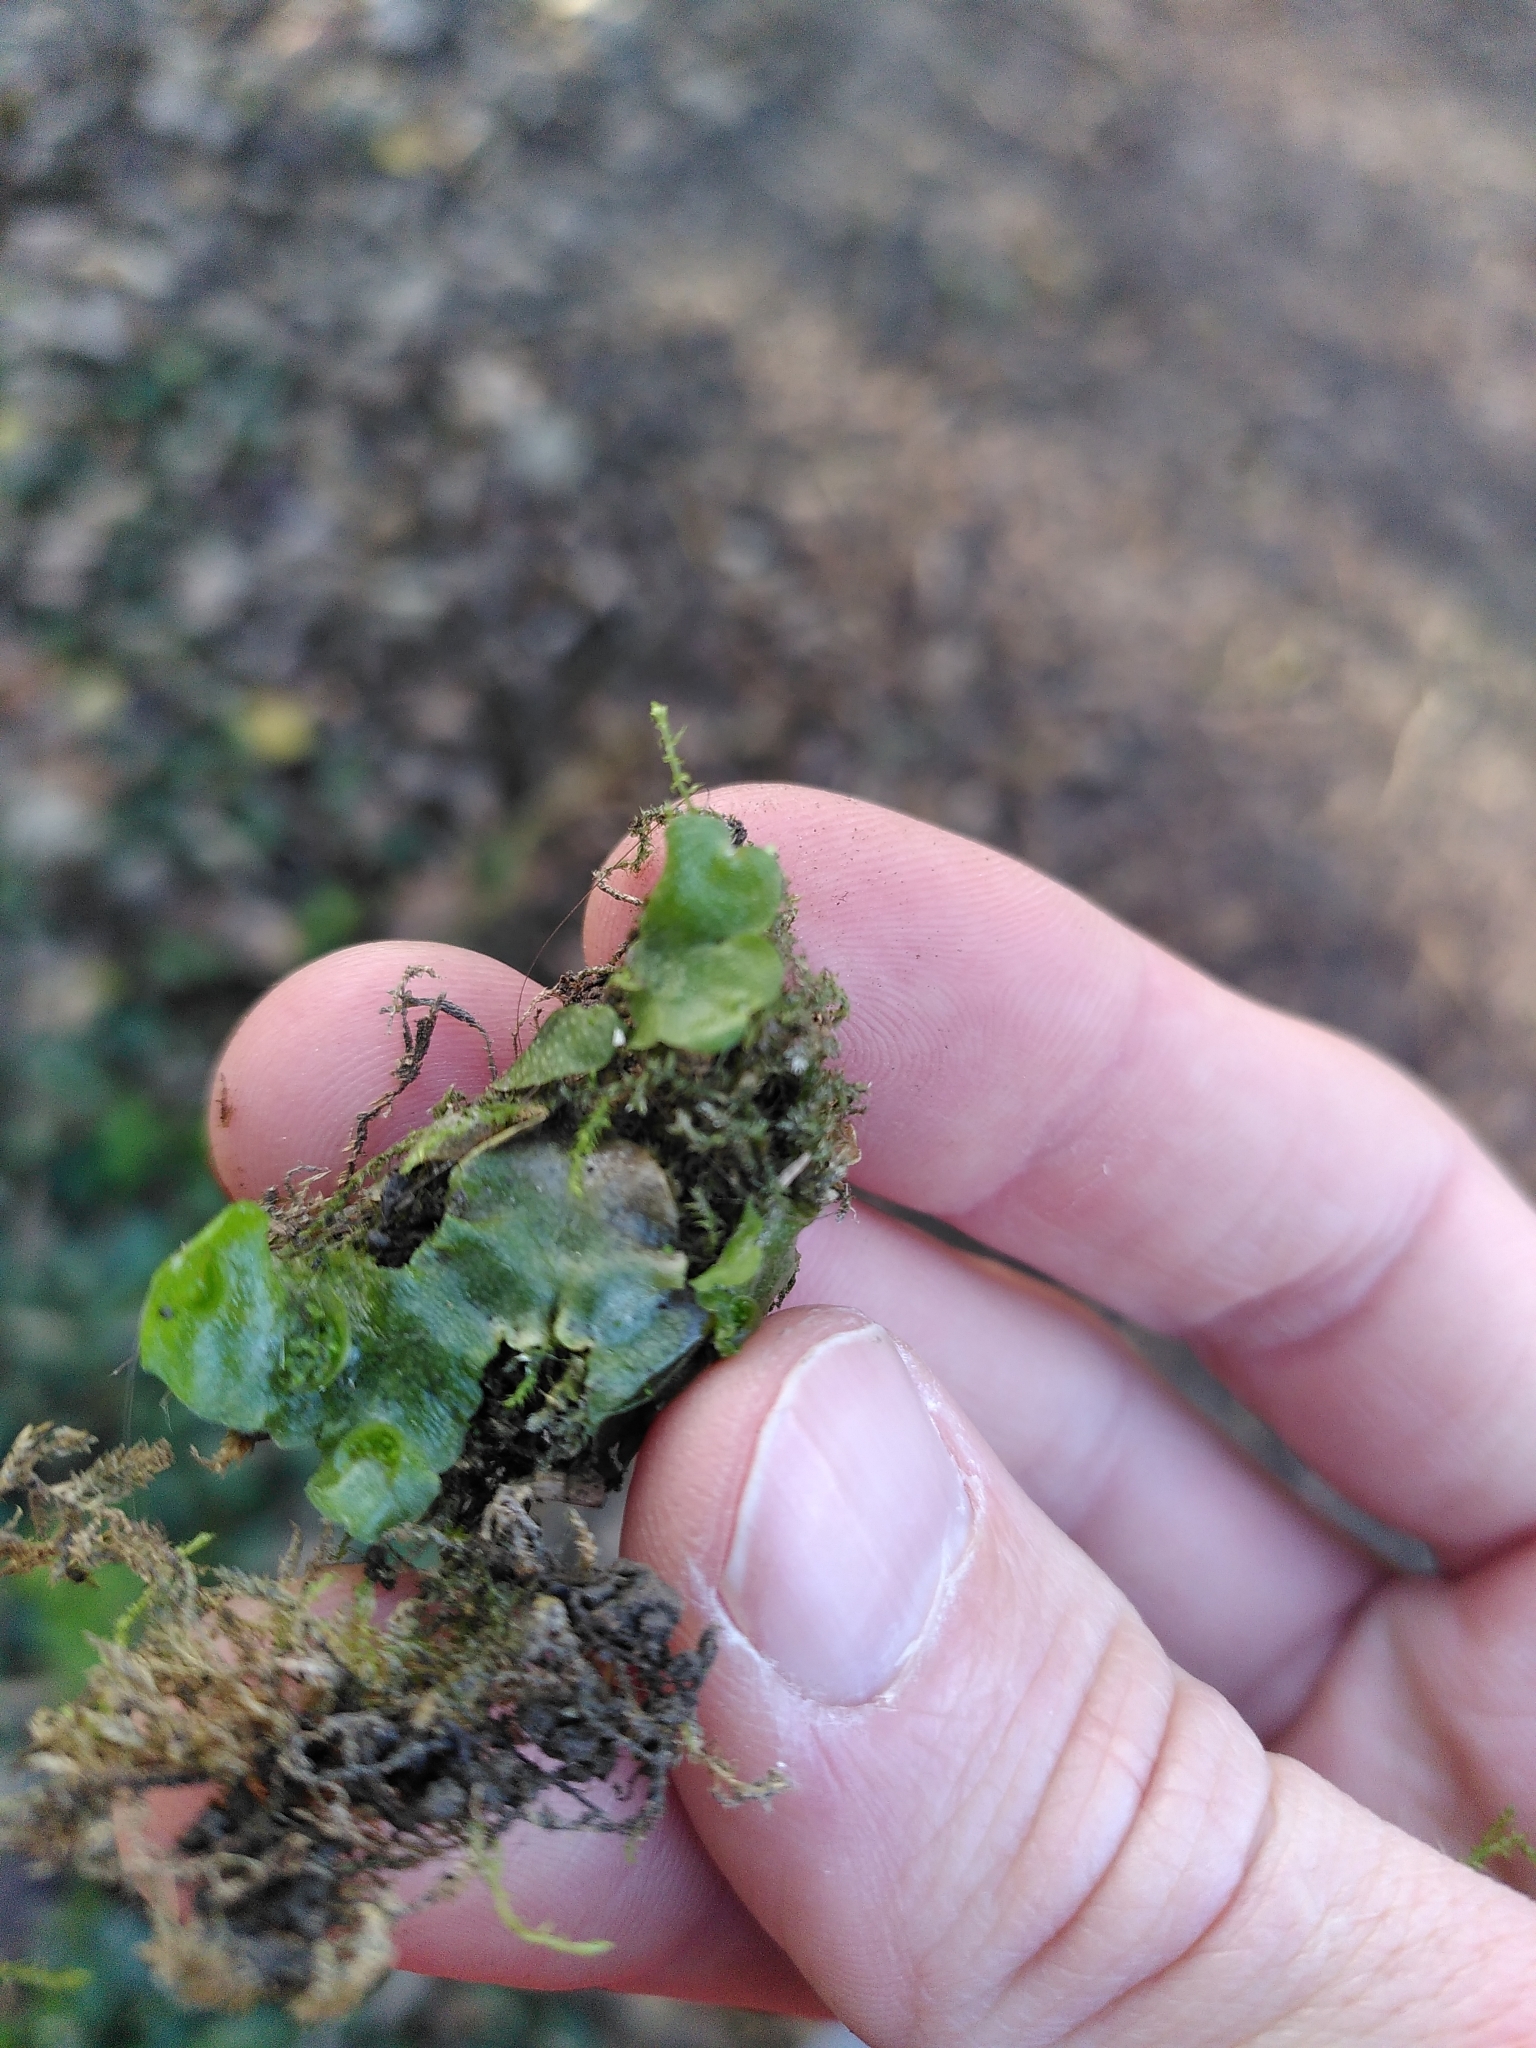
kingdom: Plantae
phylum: Marchantiophyta
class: Marchantiopsida
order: Lunulariales
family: Lunulariaceae
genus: Lunularia
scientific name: Lunularia cruciata
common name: Crescent-cup liverwort
